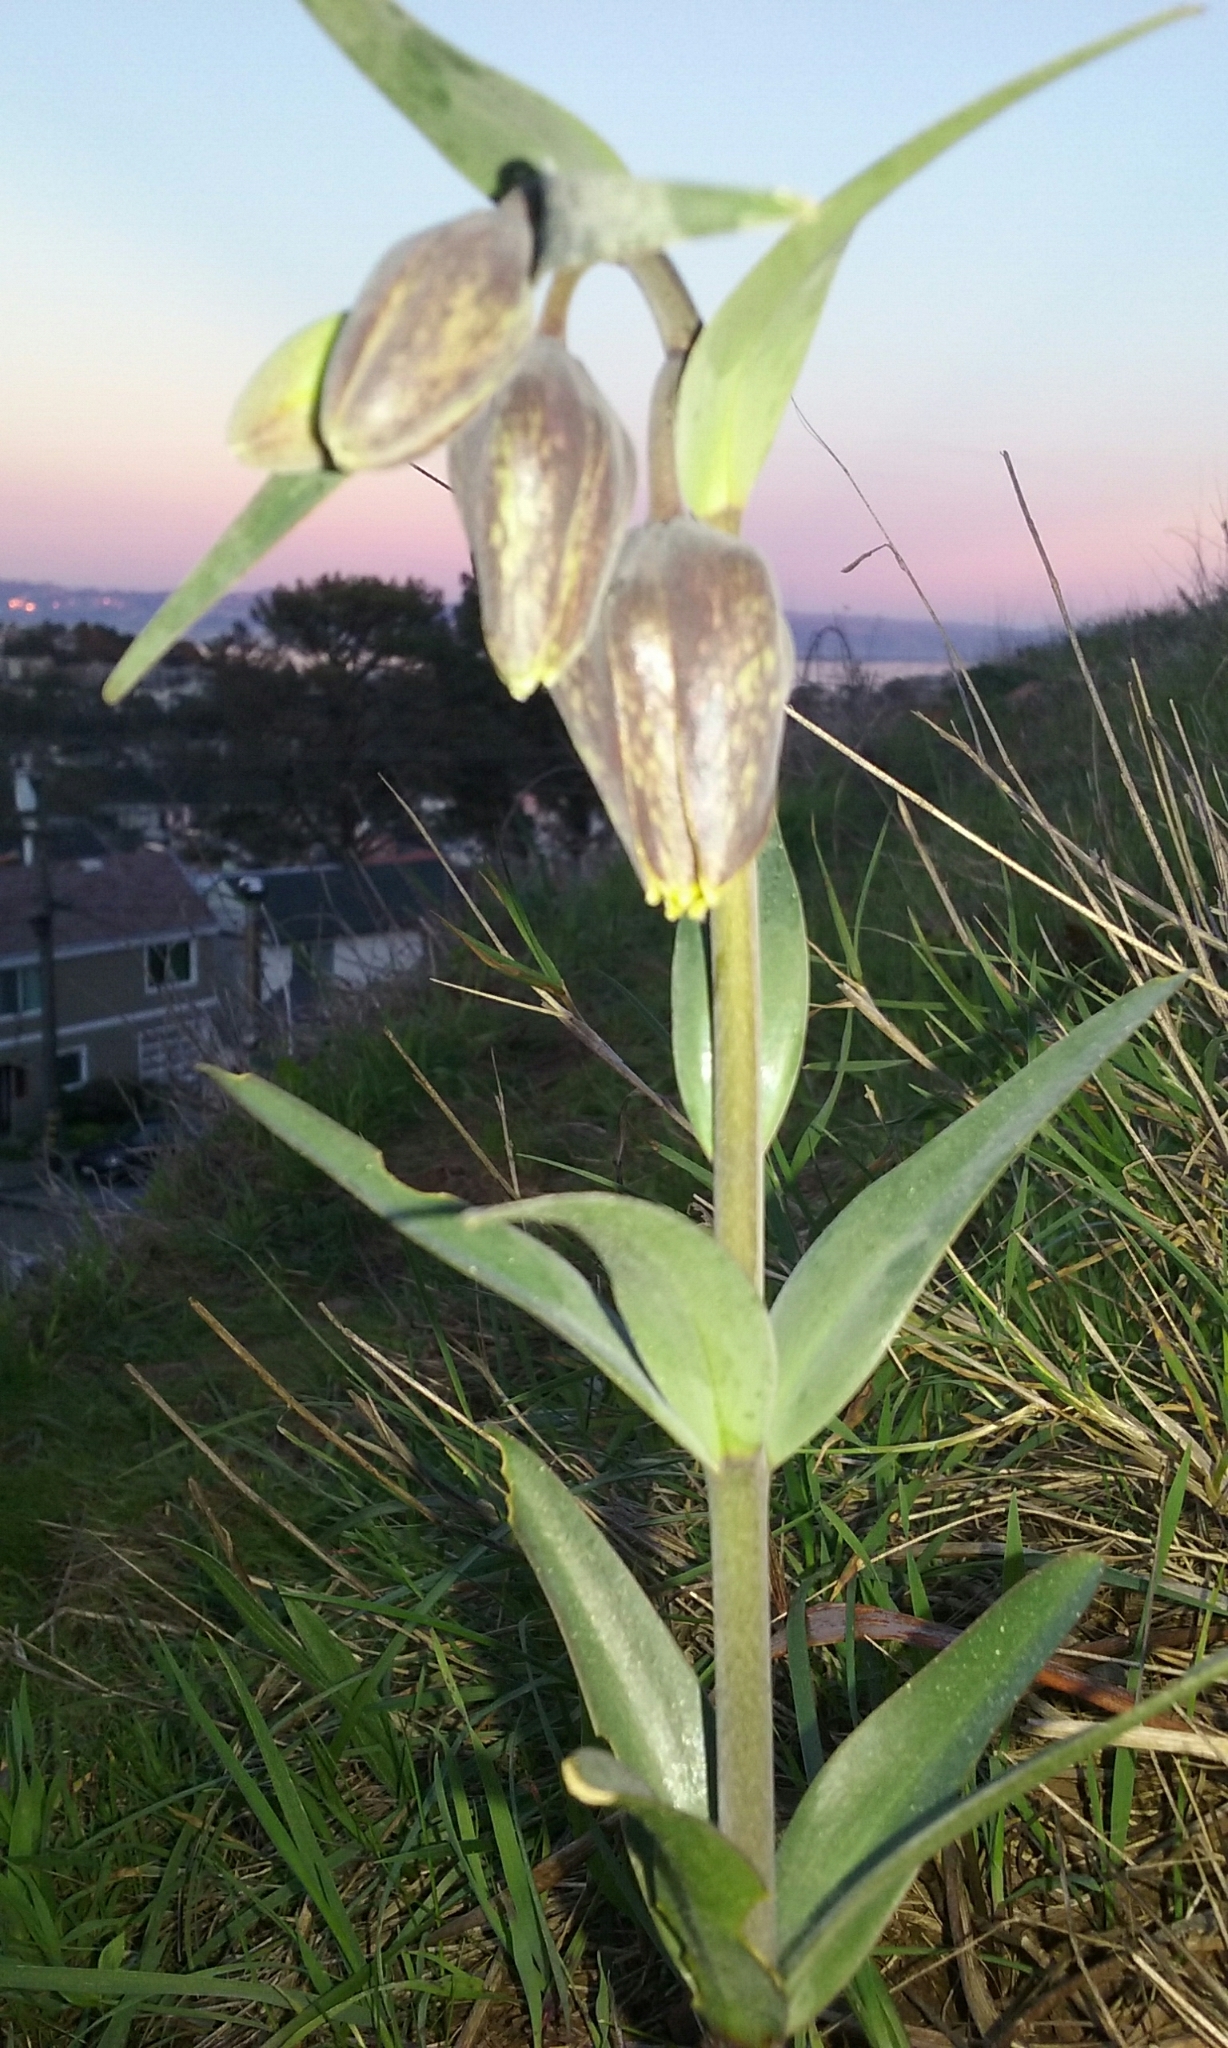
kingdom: Plantae
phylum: Tracheophyta
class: Liliopsida
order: Liliales
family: Liliaceae
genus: Fritillaria
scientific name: Fritillaria affinis
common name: Ojai fritillary
